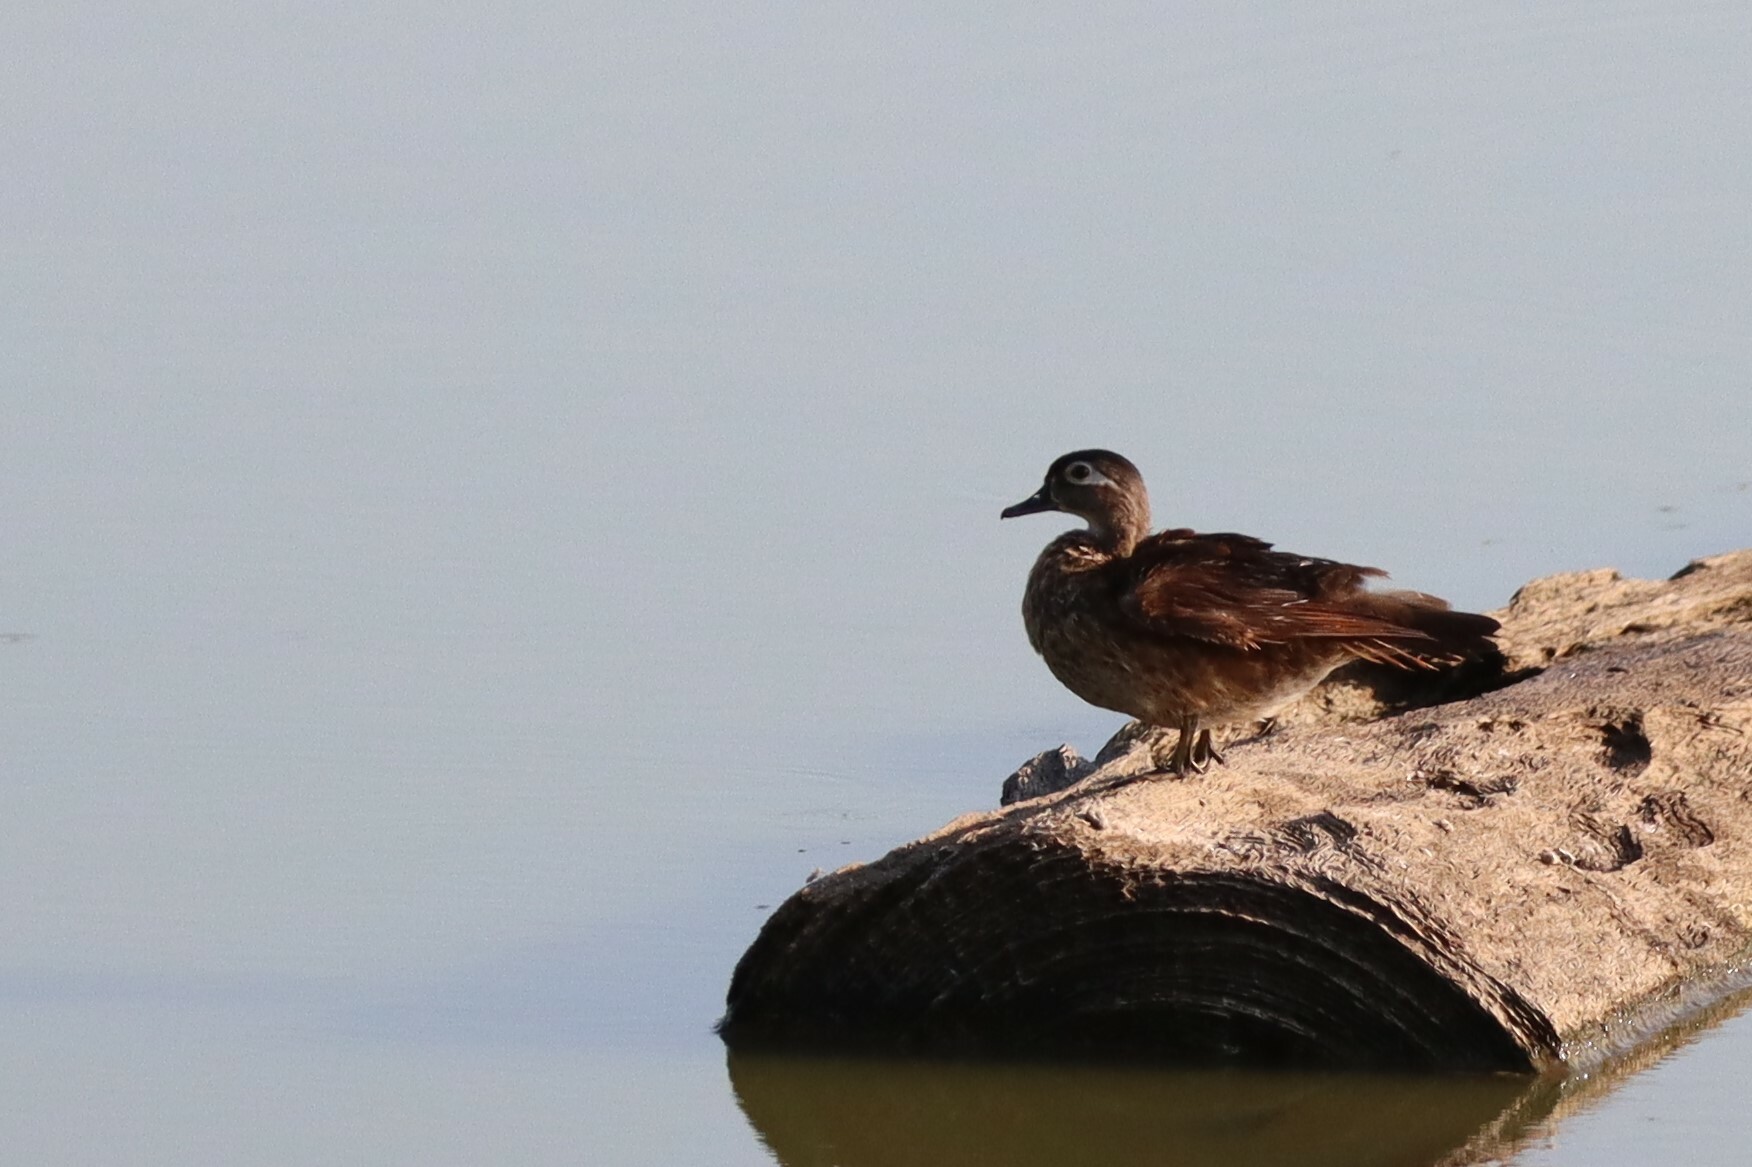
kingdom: Animalia
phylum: Chordata
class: Aves
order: Anseriformes
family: Anatidae
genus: Aix
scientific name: Aix sponsa
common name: Wood duck
